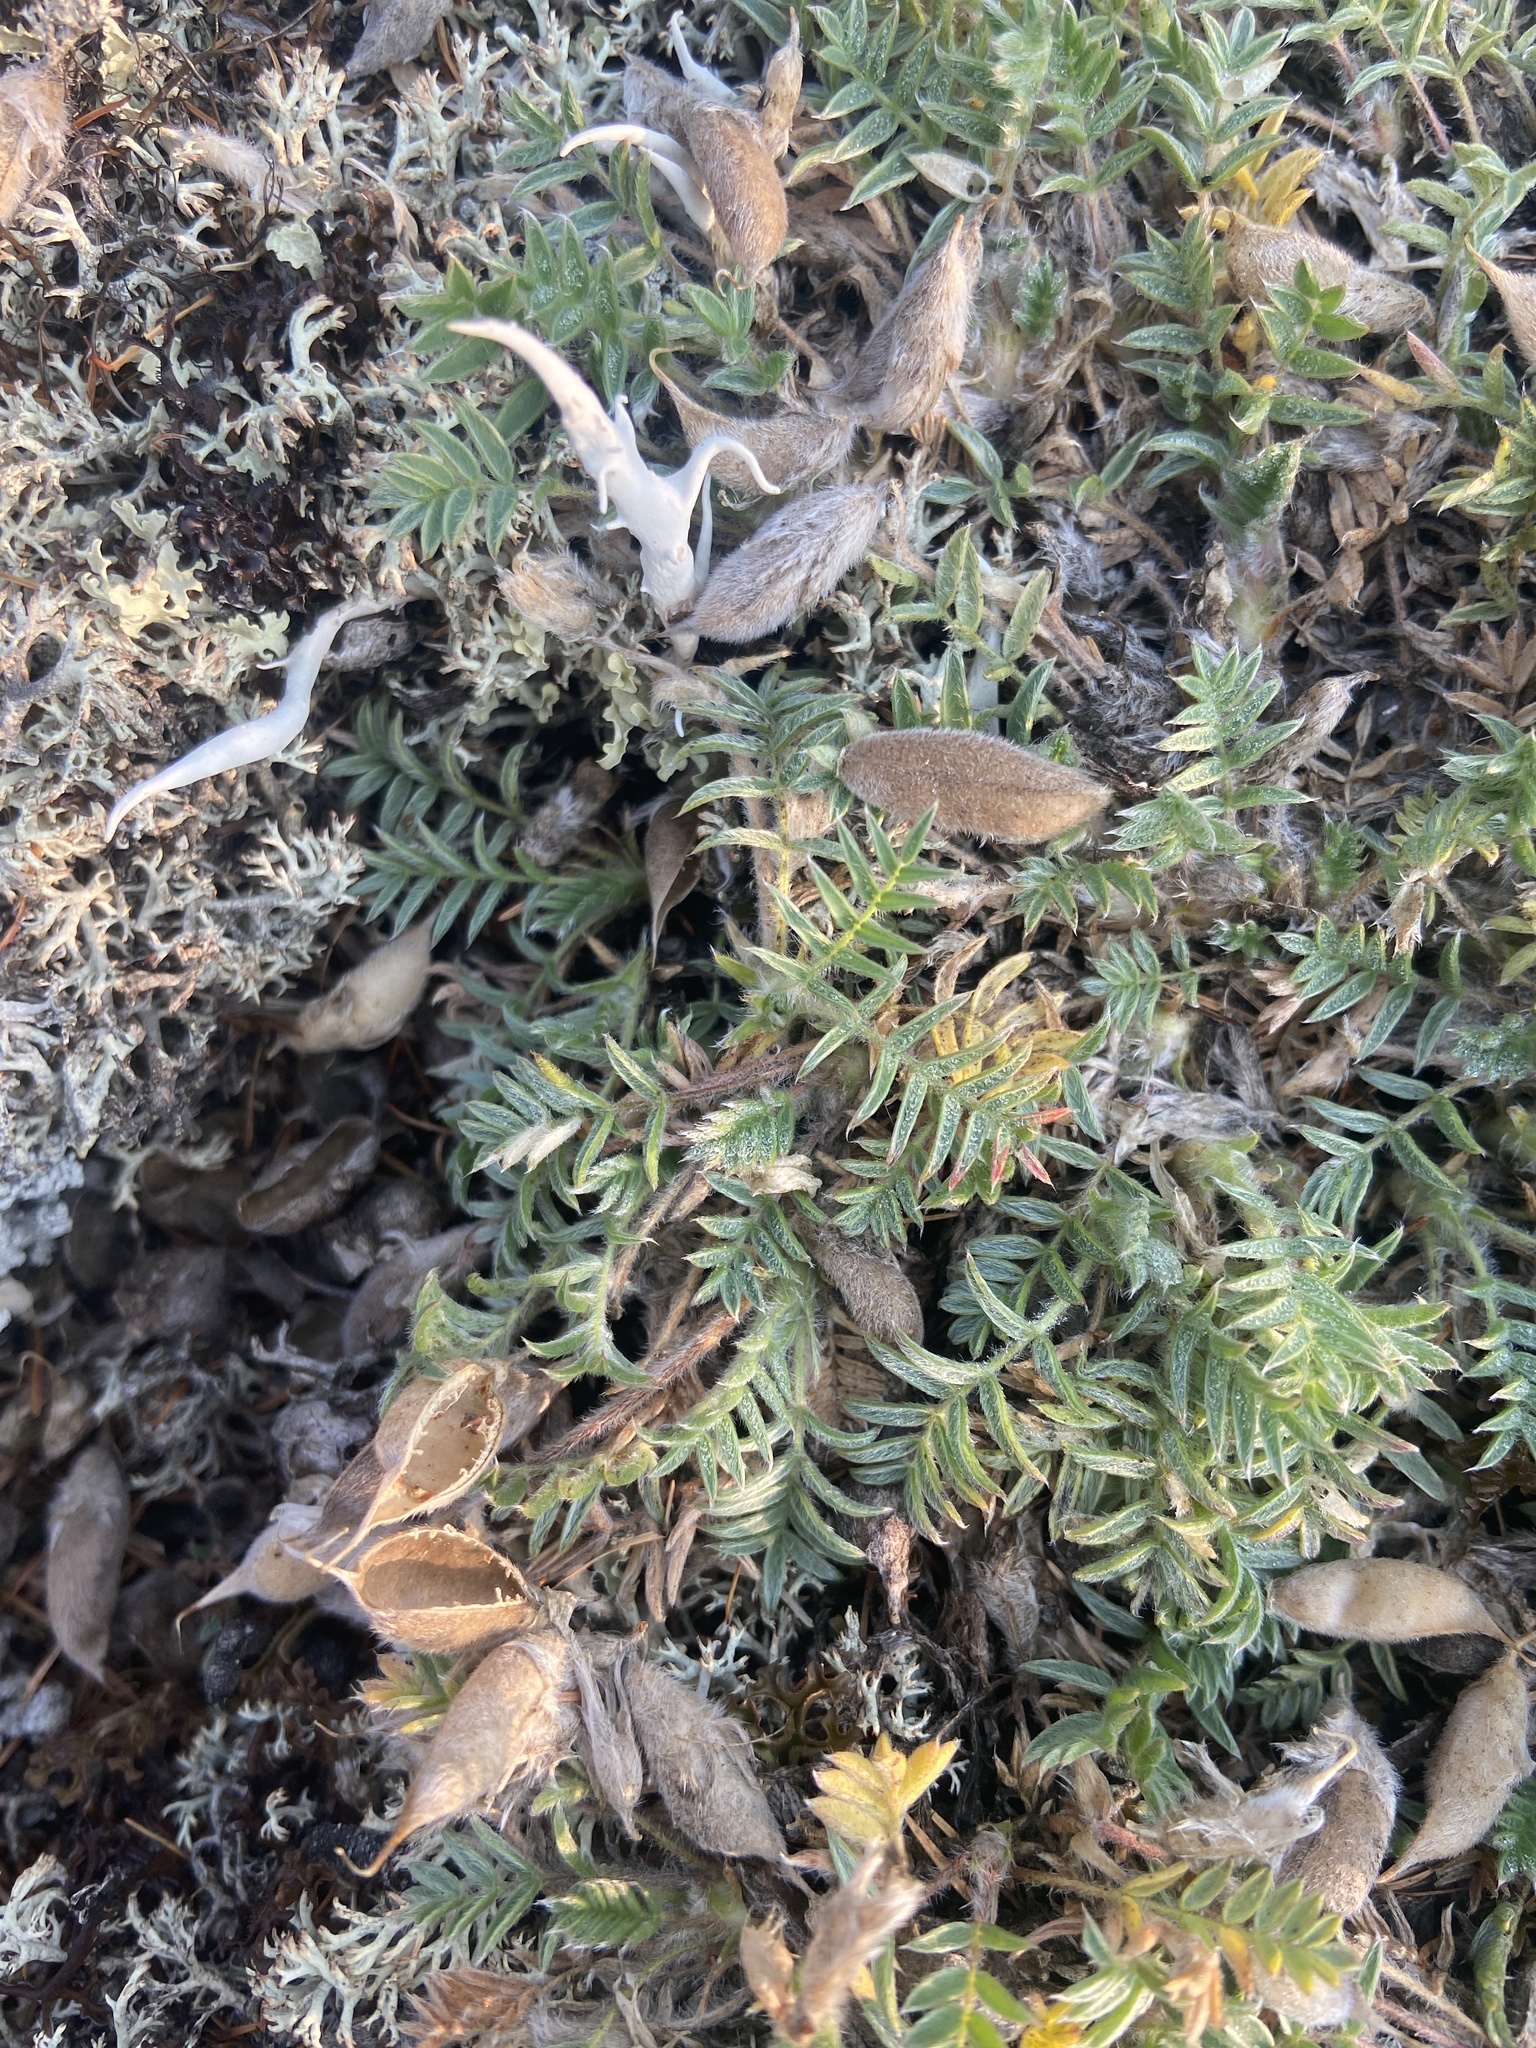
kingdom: Plantae
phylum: Tracheophyta
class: Magnoliopsida
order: Fabales
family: Fabaceae
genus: Oxytropis
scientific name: Oxytropis susumanica
